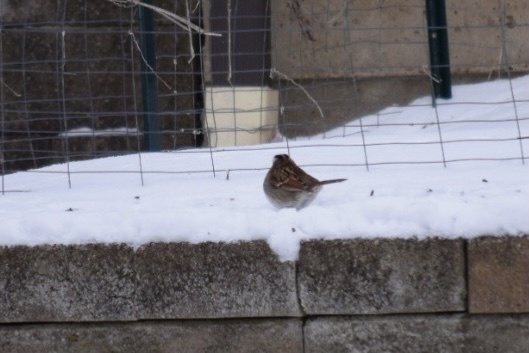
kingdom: Animalia
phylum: Chordata
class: Aves
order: Passeriformes
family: Passerellidae
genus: Zonotrichia
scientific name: Zonotrichia albicollis
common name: White-throated sparrow
